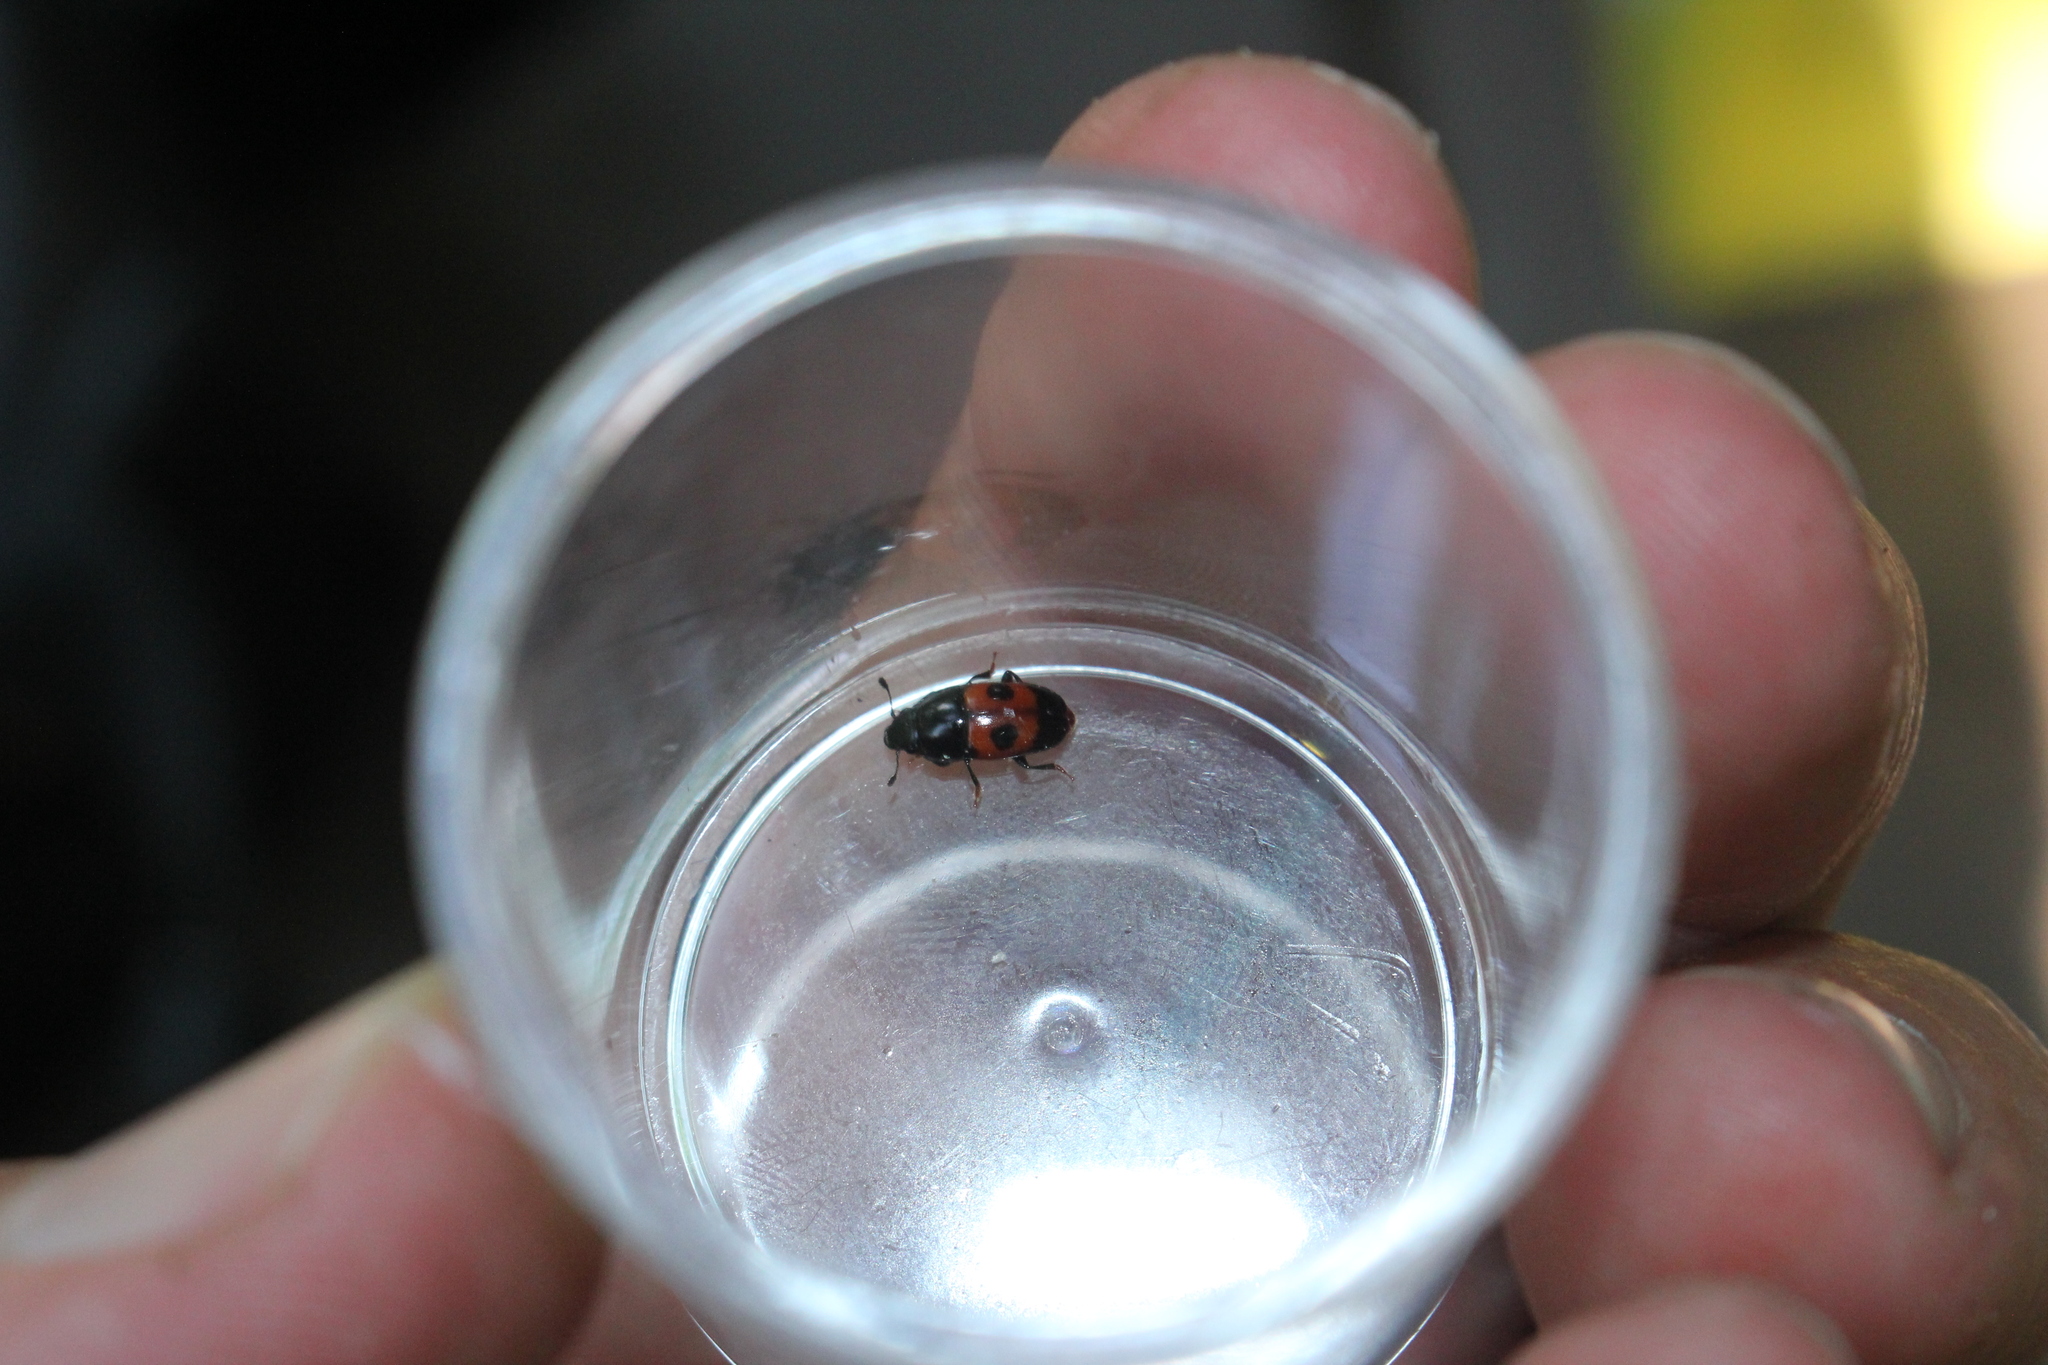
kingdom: Animalia
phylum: Arthropoda
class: Insecta
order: Coleoptera
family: Nitidulidae
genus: Glischrochilus
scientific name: Glischrochilus sanguinolentus
